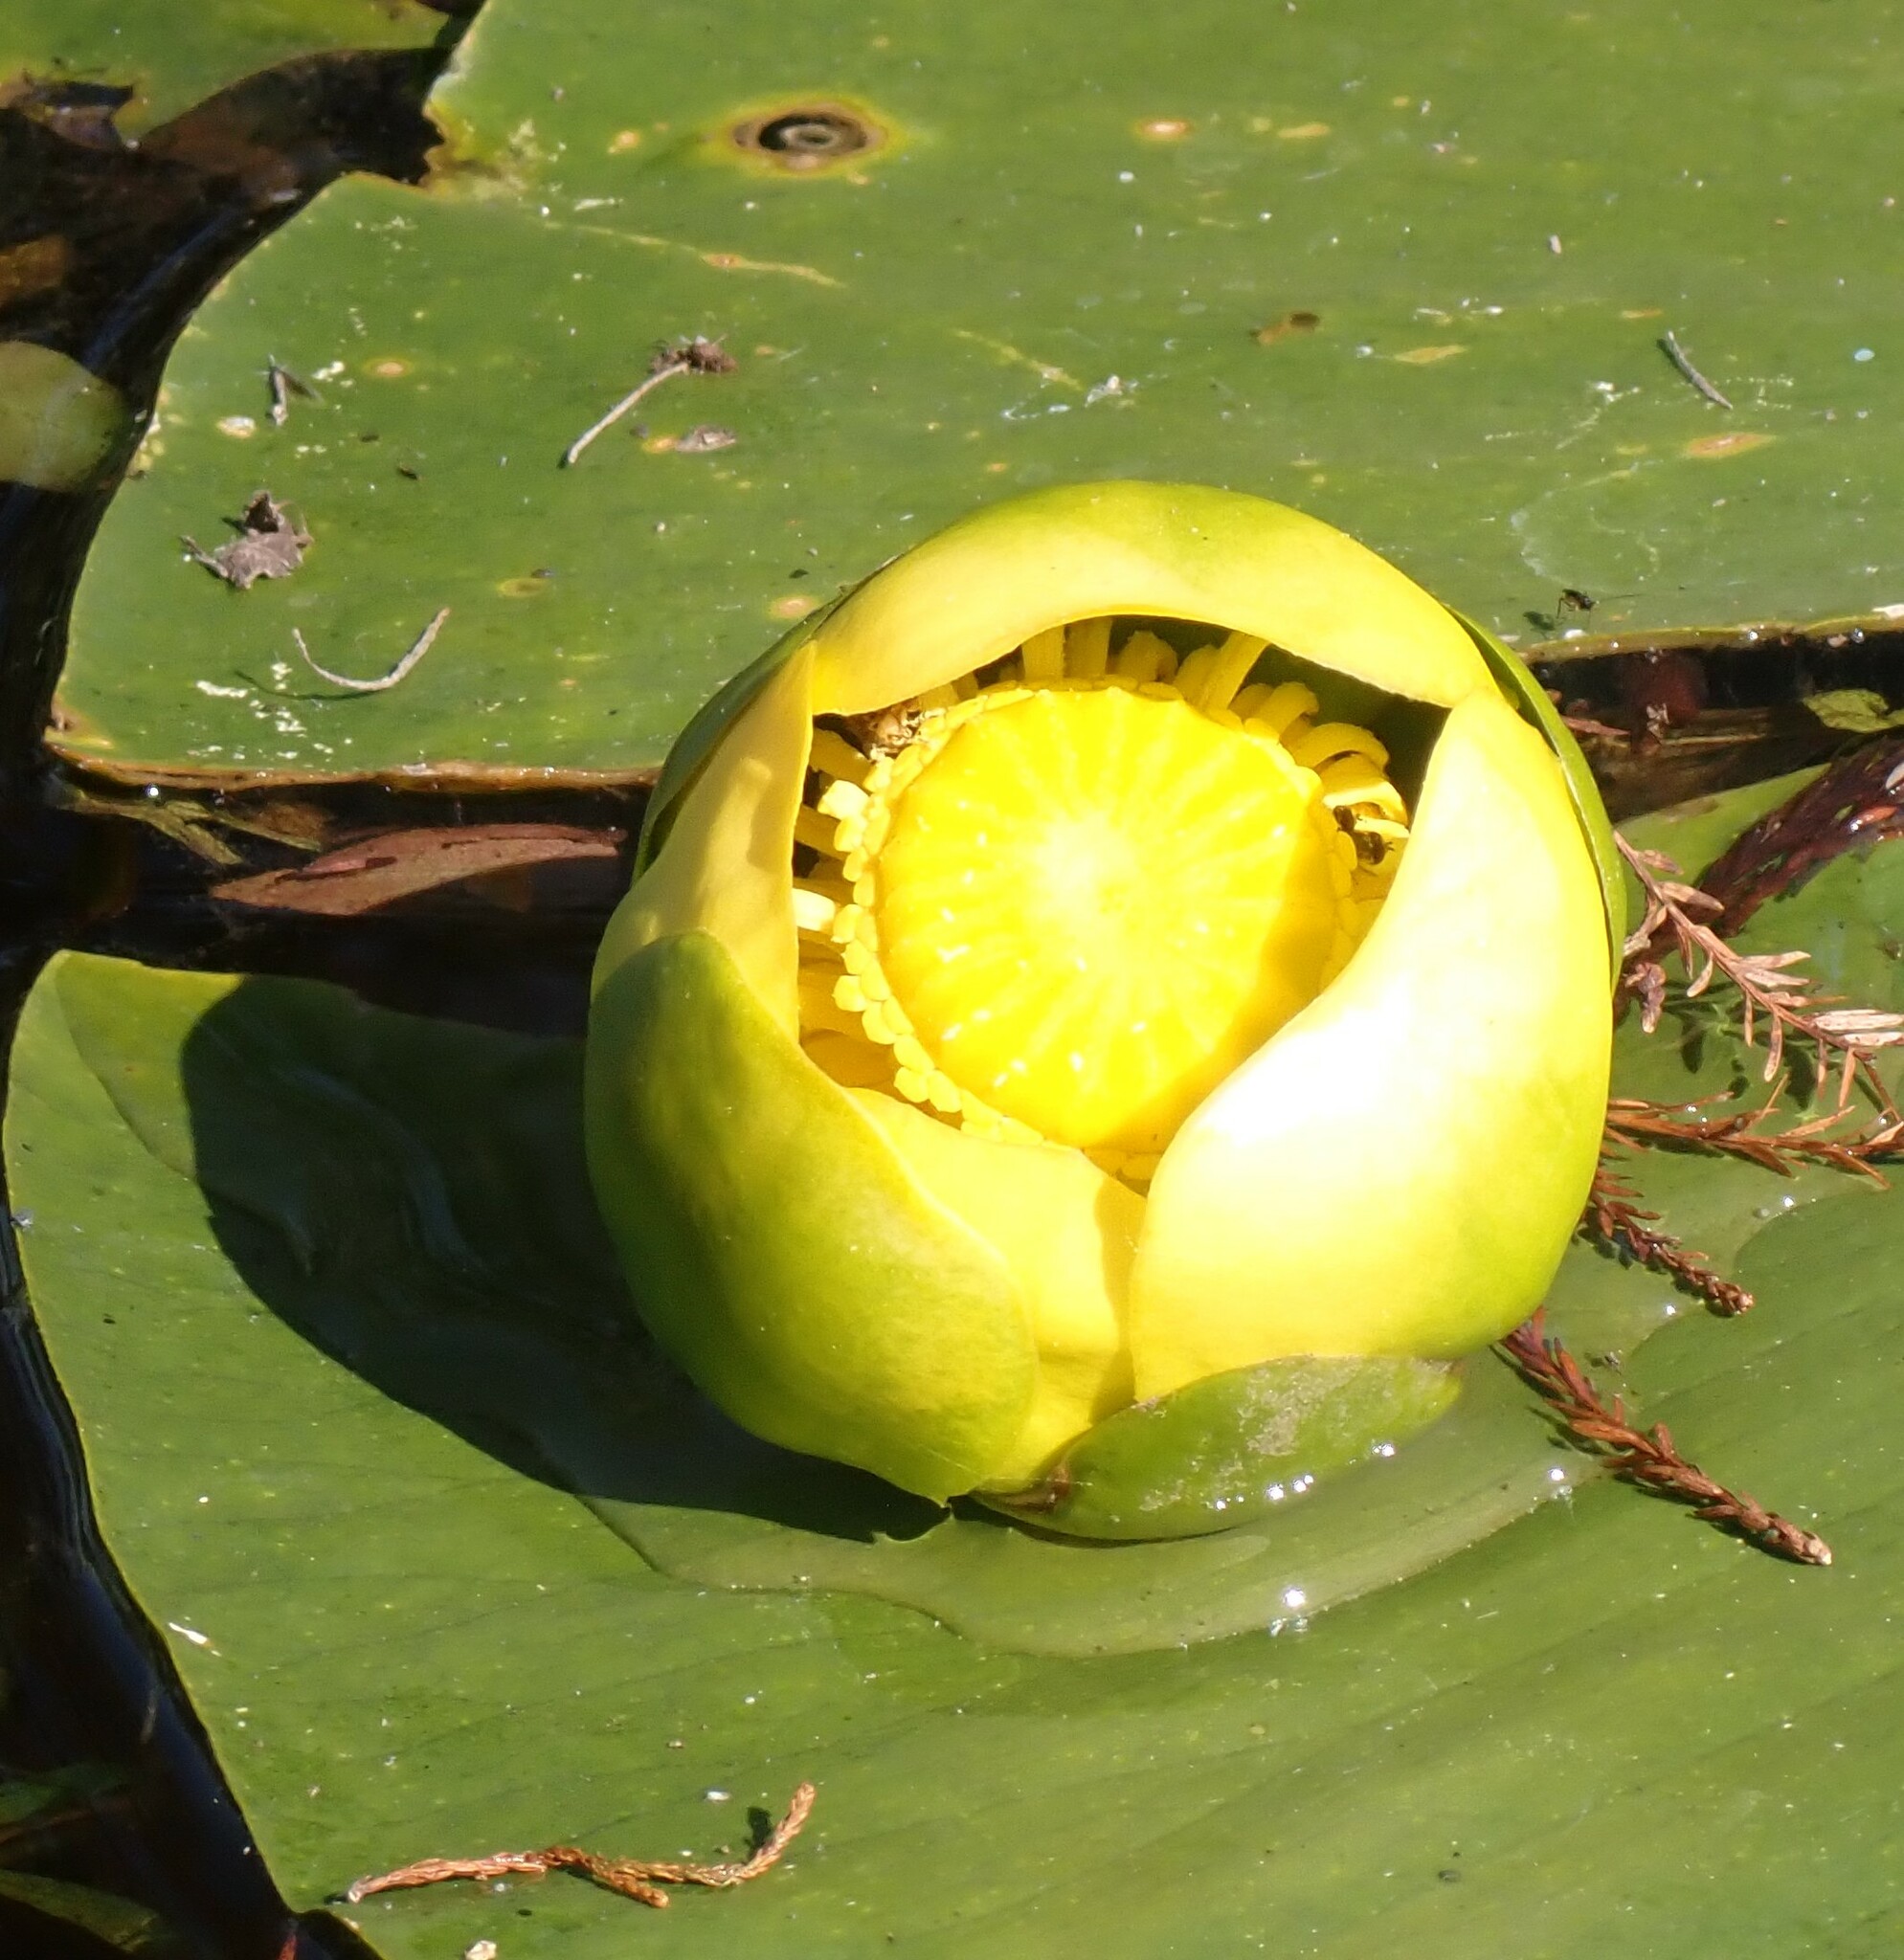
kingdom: Plantae
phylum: Tracheophyta
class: Magnoliopsida
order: Nymphaeales
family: Nymphaeaceae
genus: Nuphar
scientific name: Nuphar advena
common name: Spatter-dock
